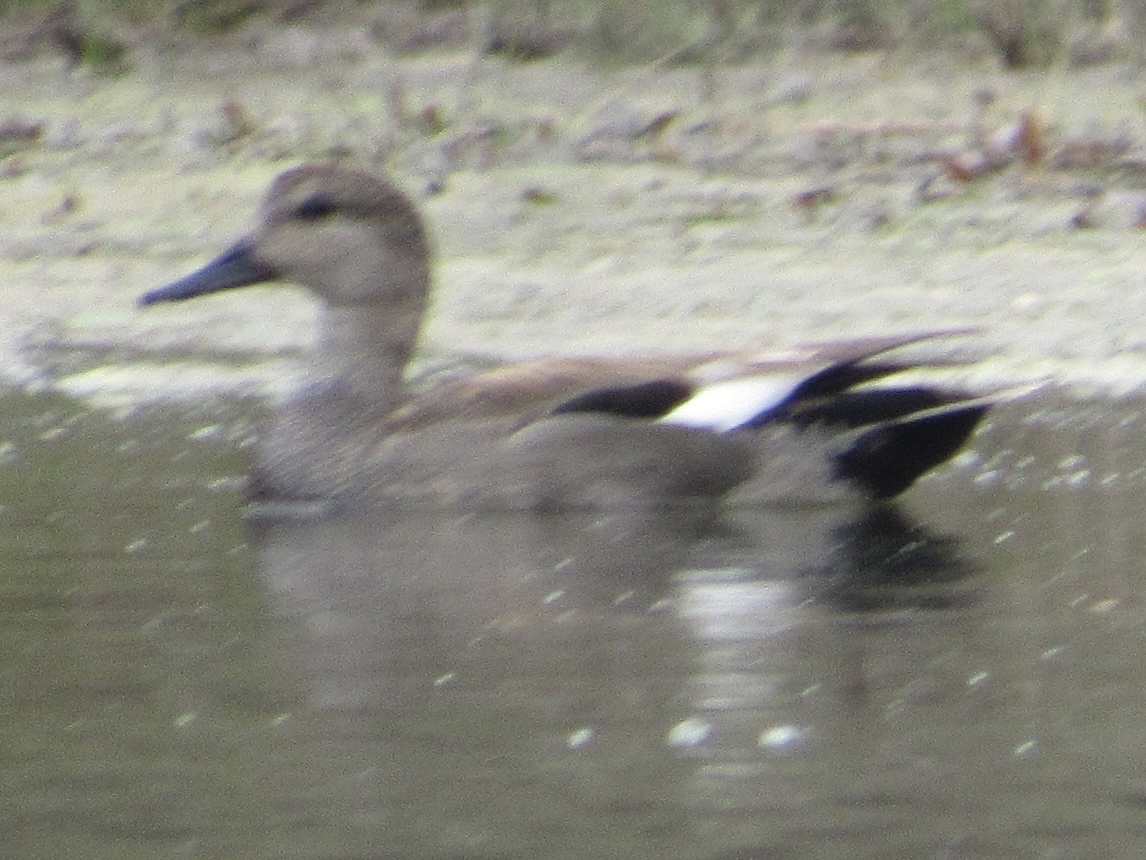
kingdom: Animalia
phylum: Chordata
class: Aves
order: Anseriformes
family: Anatidae
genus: Mareca
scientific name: Mareca strepera
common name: Gadwall
